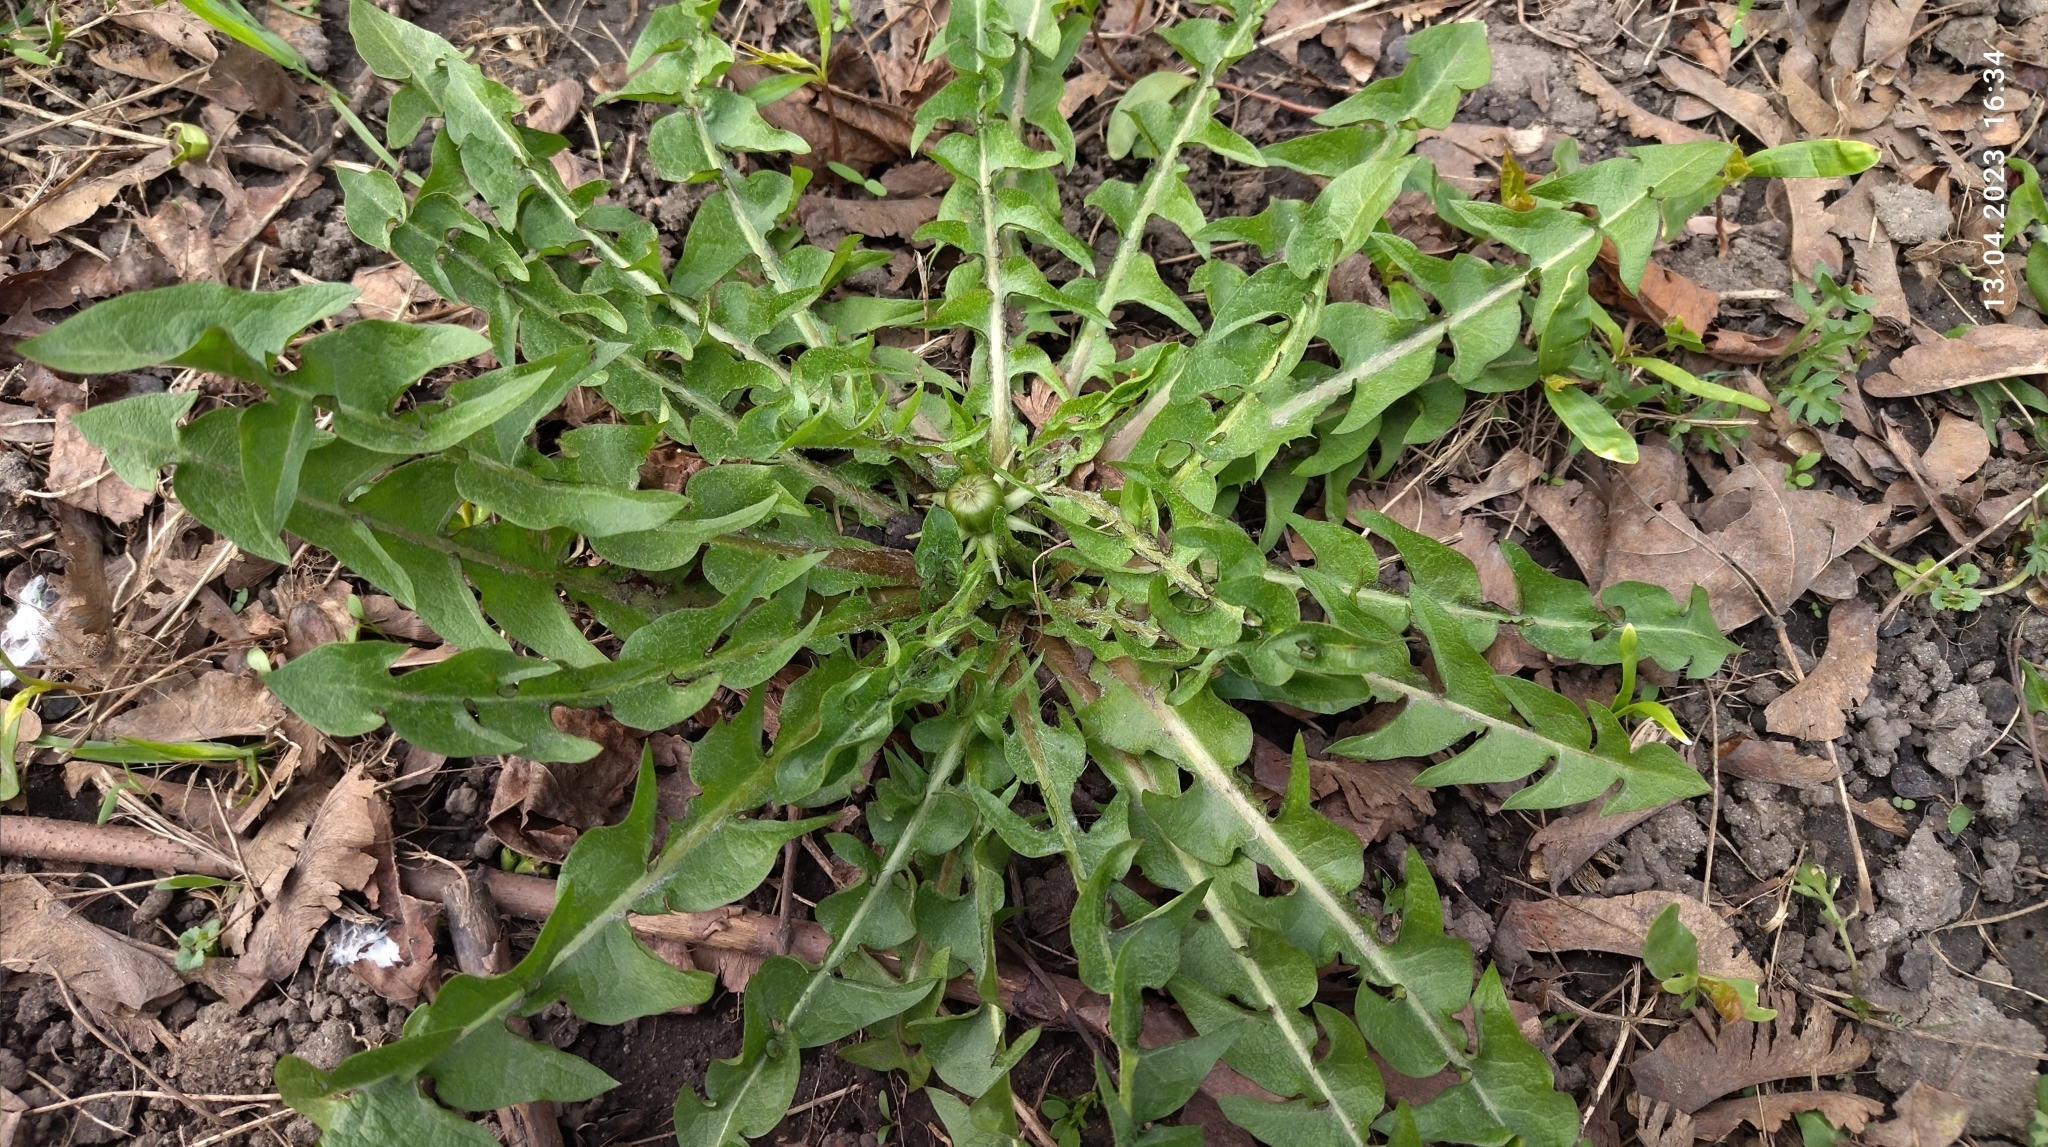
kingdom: Plantae
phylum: Tracheophyta
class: Magnoliopsida
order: Asterales
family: Asteraceae
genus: Taraxacum
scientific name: Taraxacum officinale
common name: Common dandelion
